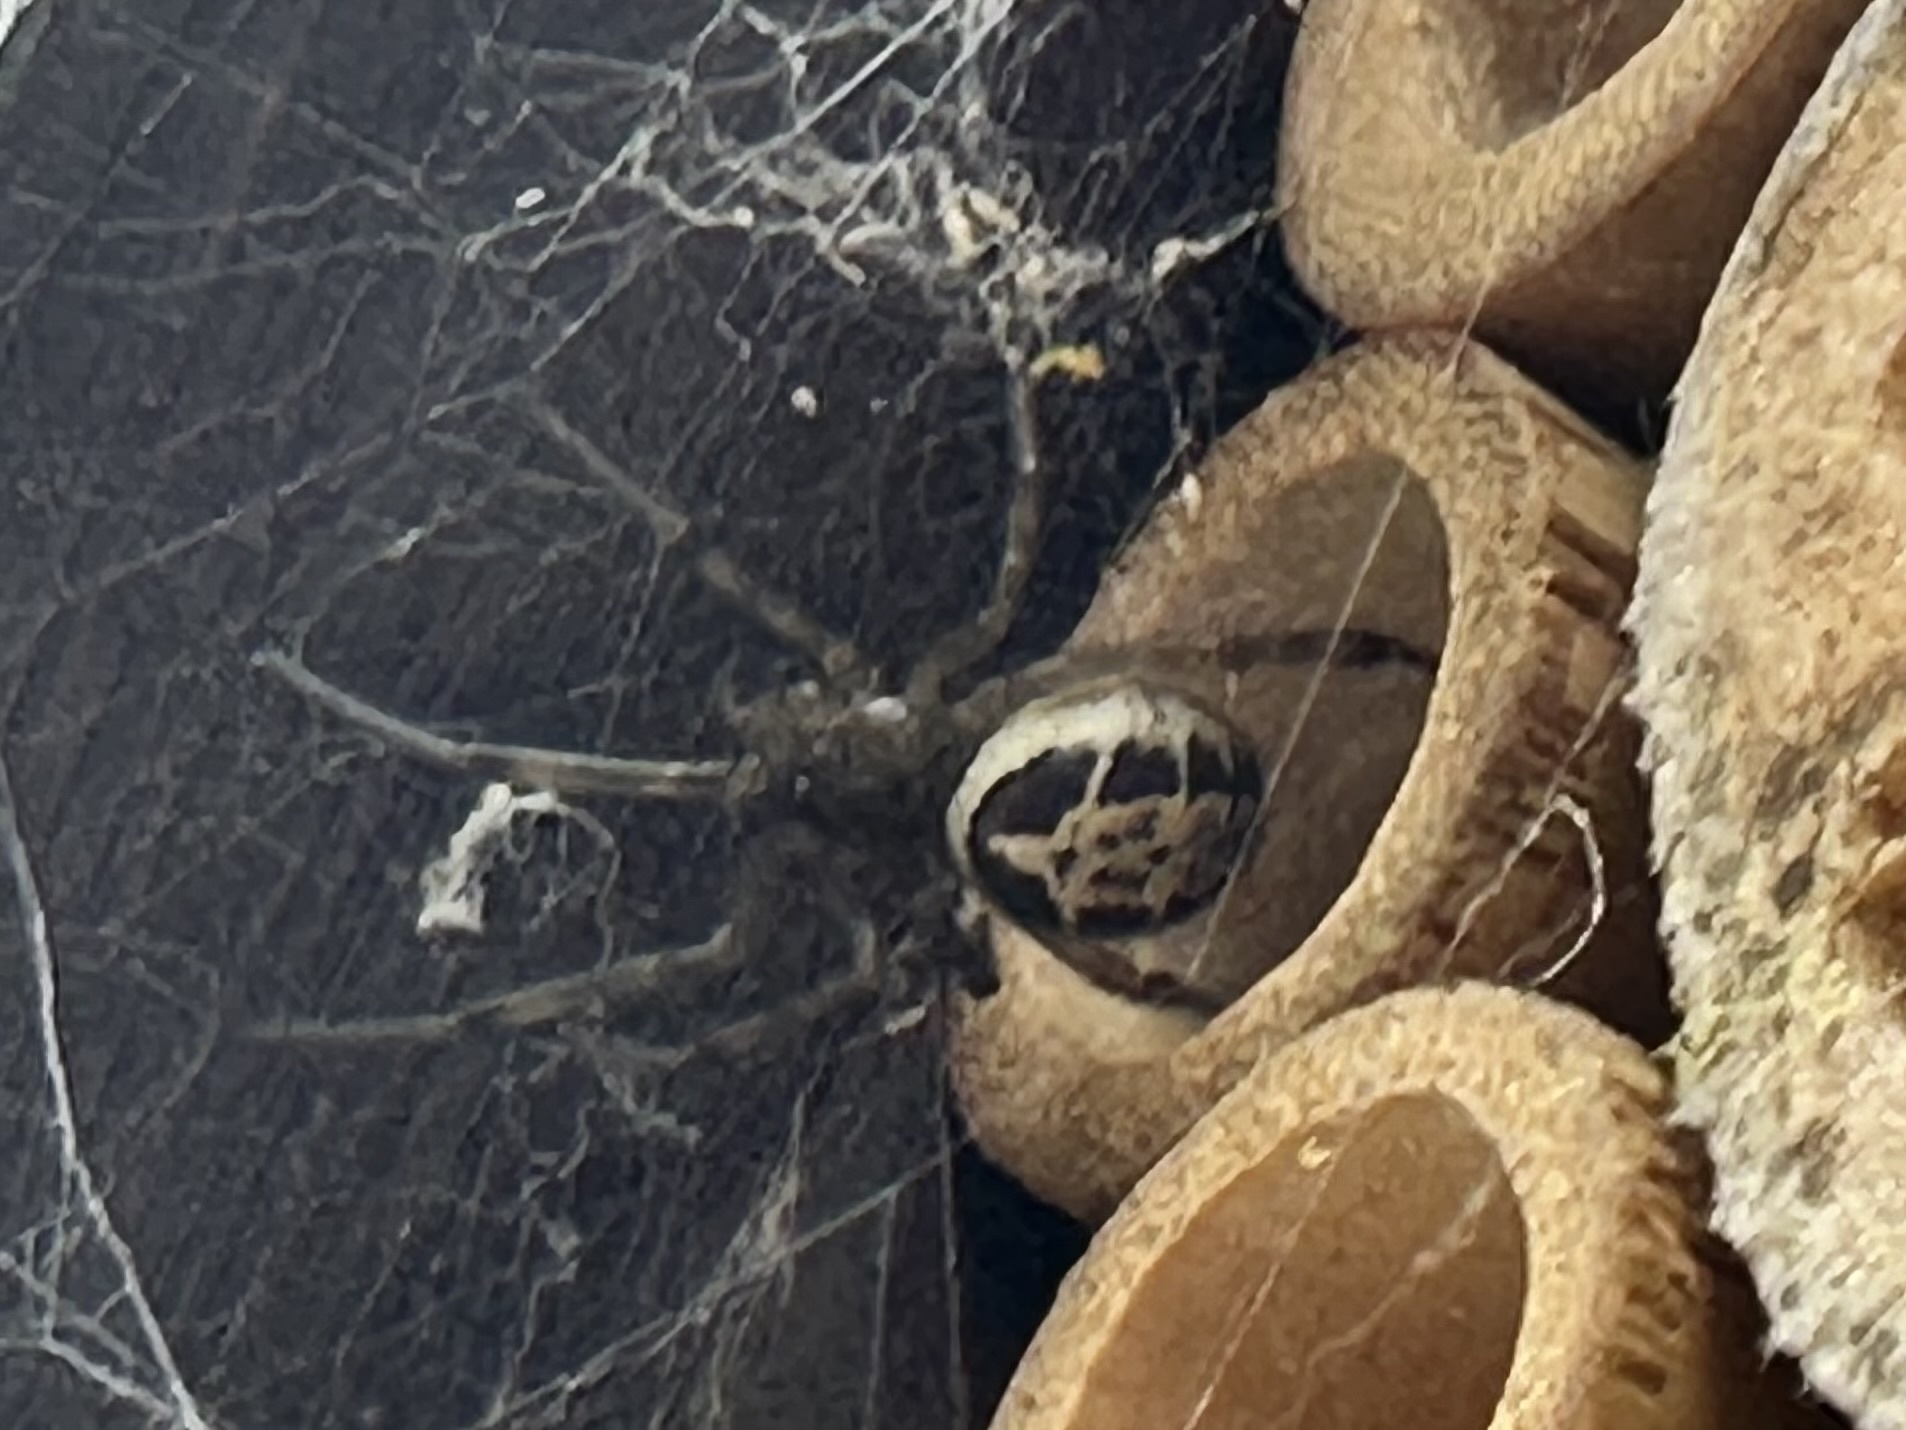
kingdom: Animalia
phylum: Arthropoda
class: Arachnida
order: Araneae
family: Theridiidae
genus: Steatoda
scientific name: Steatoda nobilis
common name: Cobweb weaver
